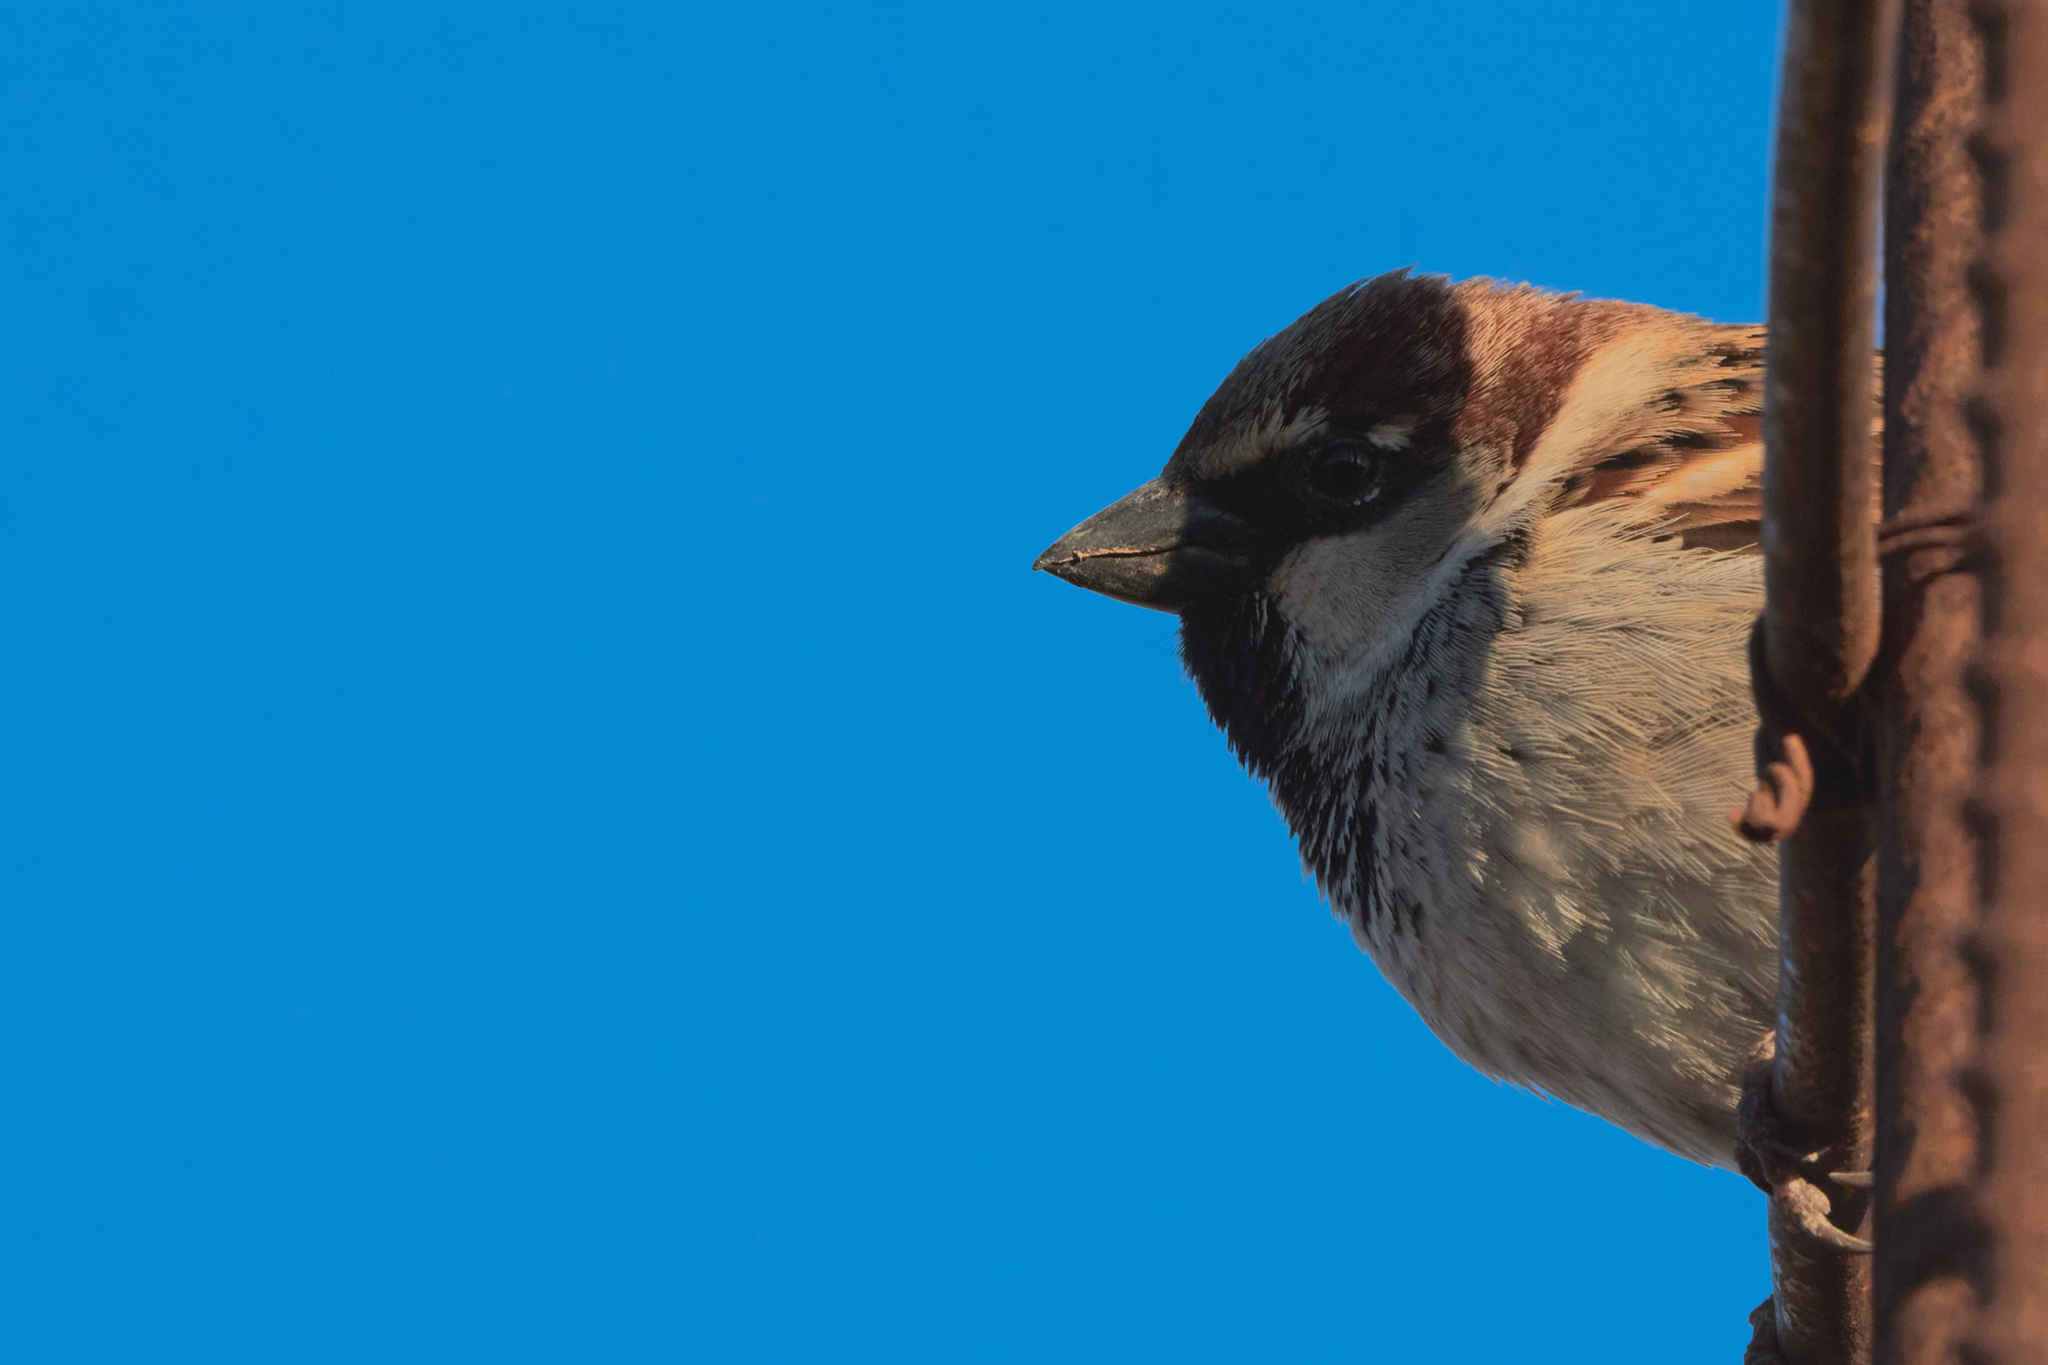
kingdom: Animalia
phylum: Chordata
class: Aves
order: Passeriformes
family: Passeridae
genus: Passer
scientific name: Passer domesticus
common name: House sparrow
